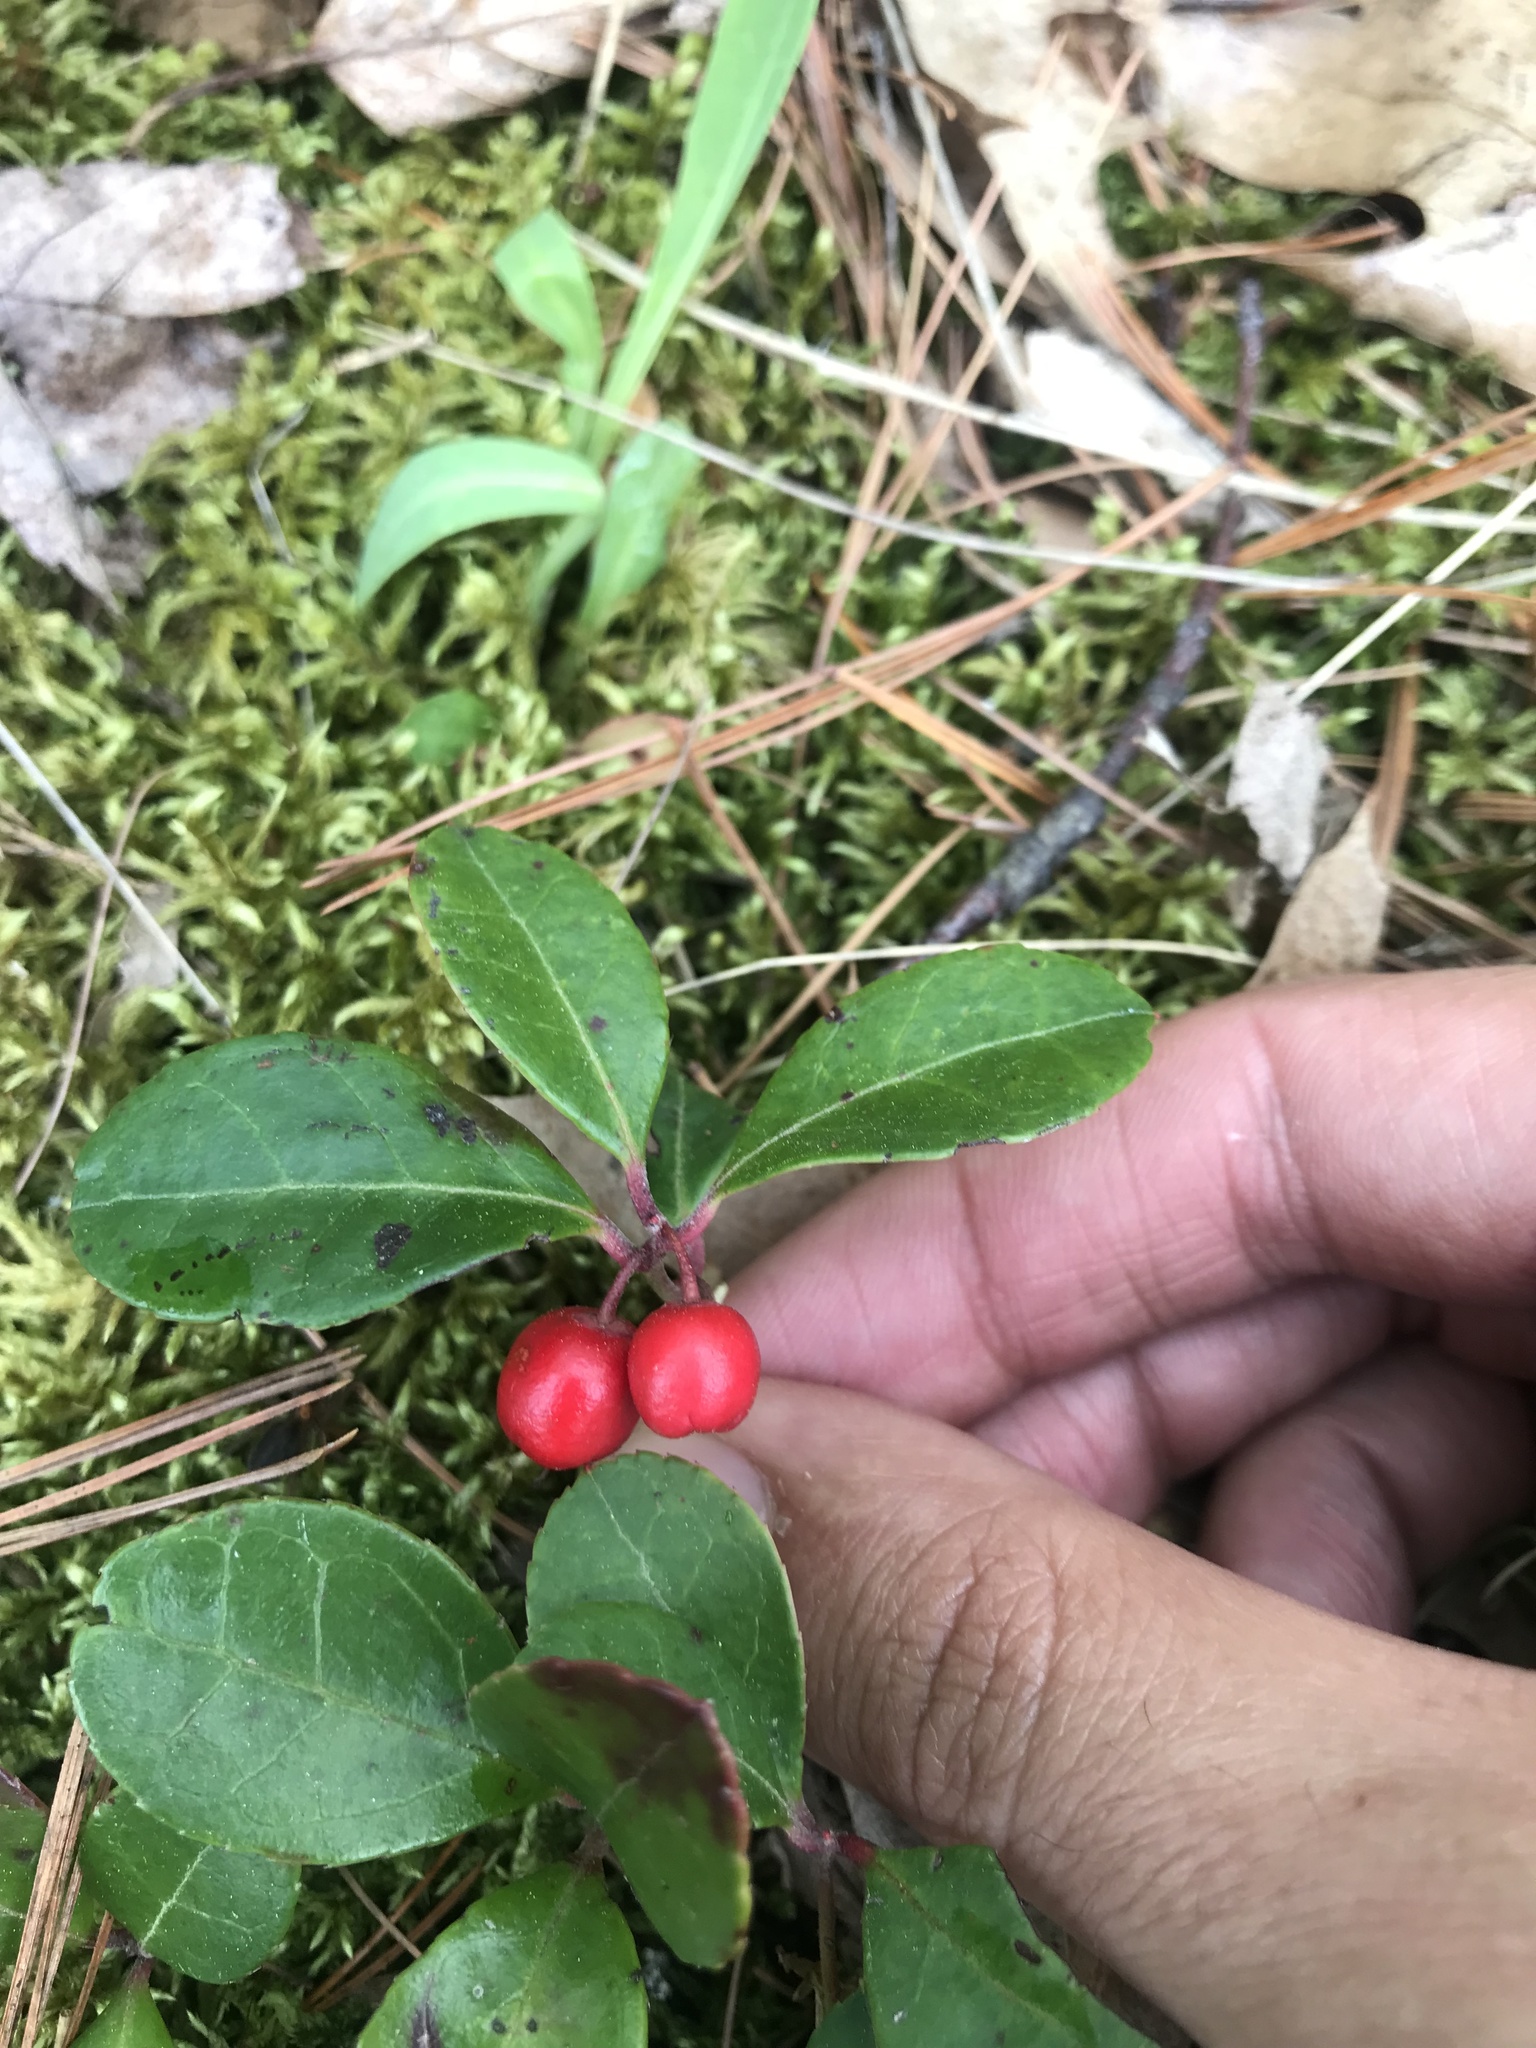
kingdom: Plantae
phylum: Tracheophyta
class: Magnoliopsida
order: Ericales
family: Ericaceae
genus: Gaultheria
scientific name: Gaultheria procumbens
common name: Checkerberry
